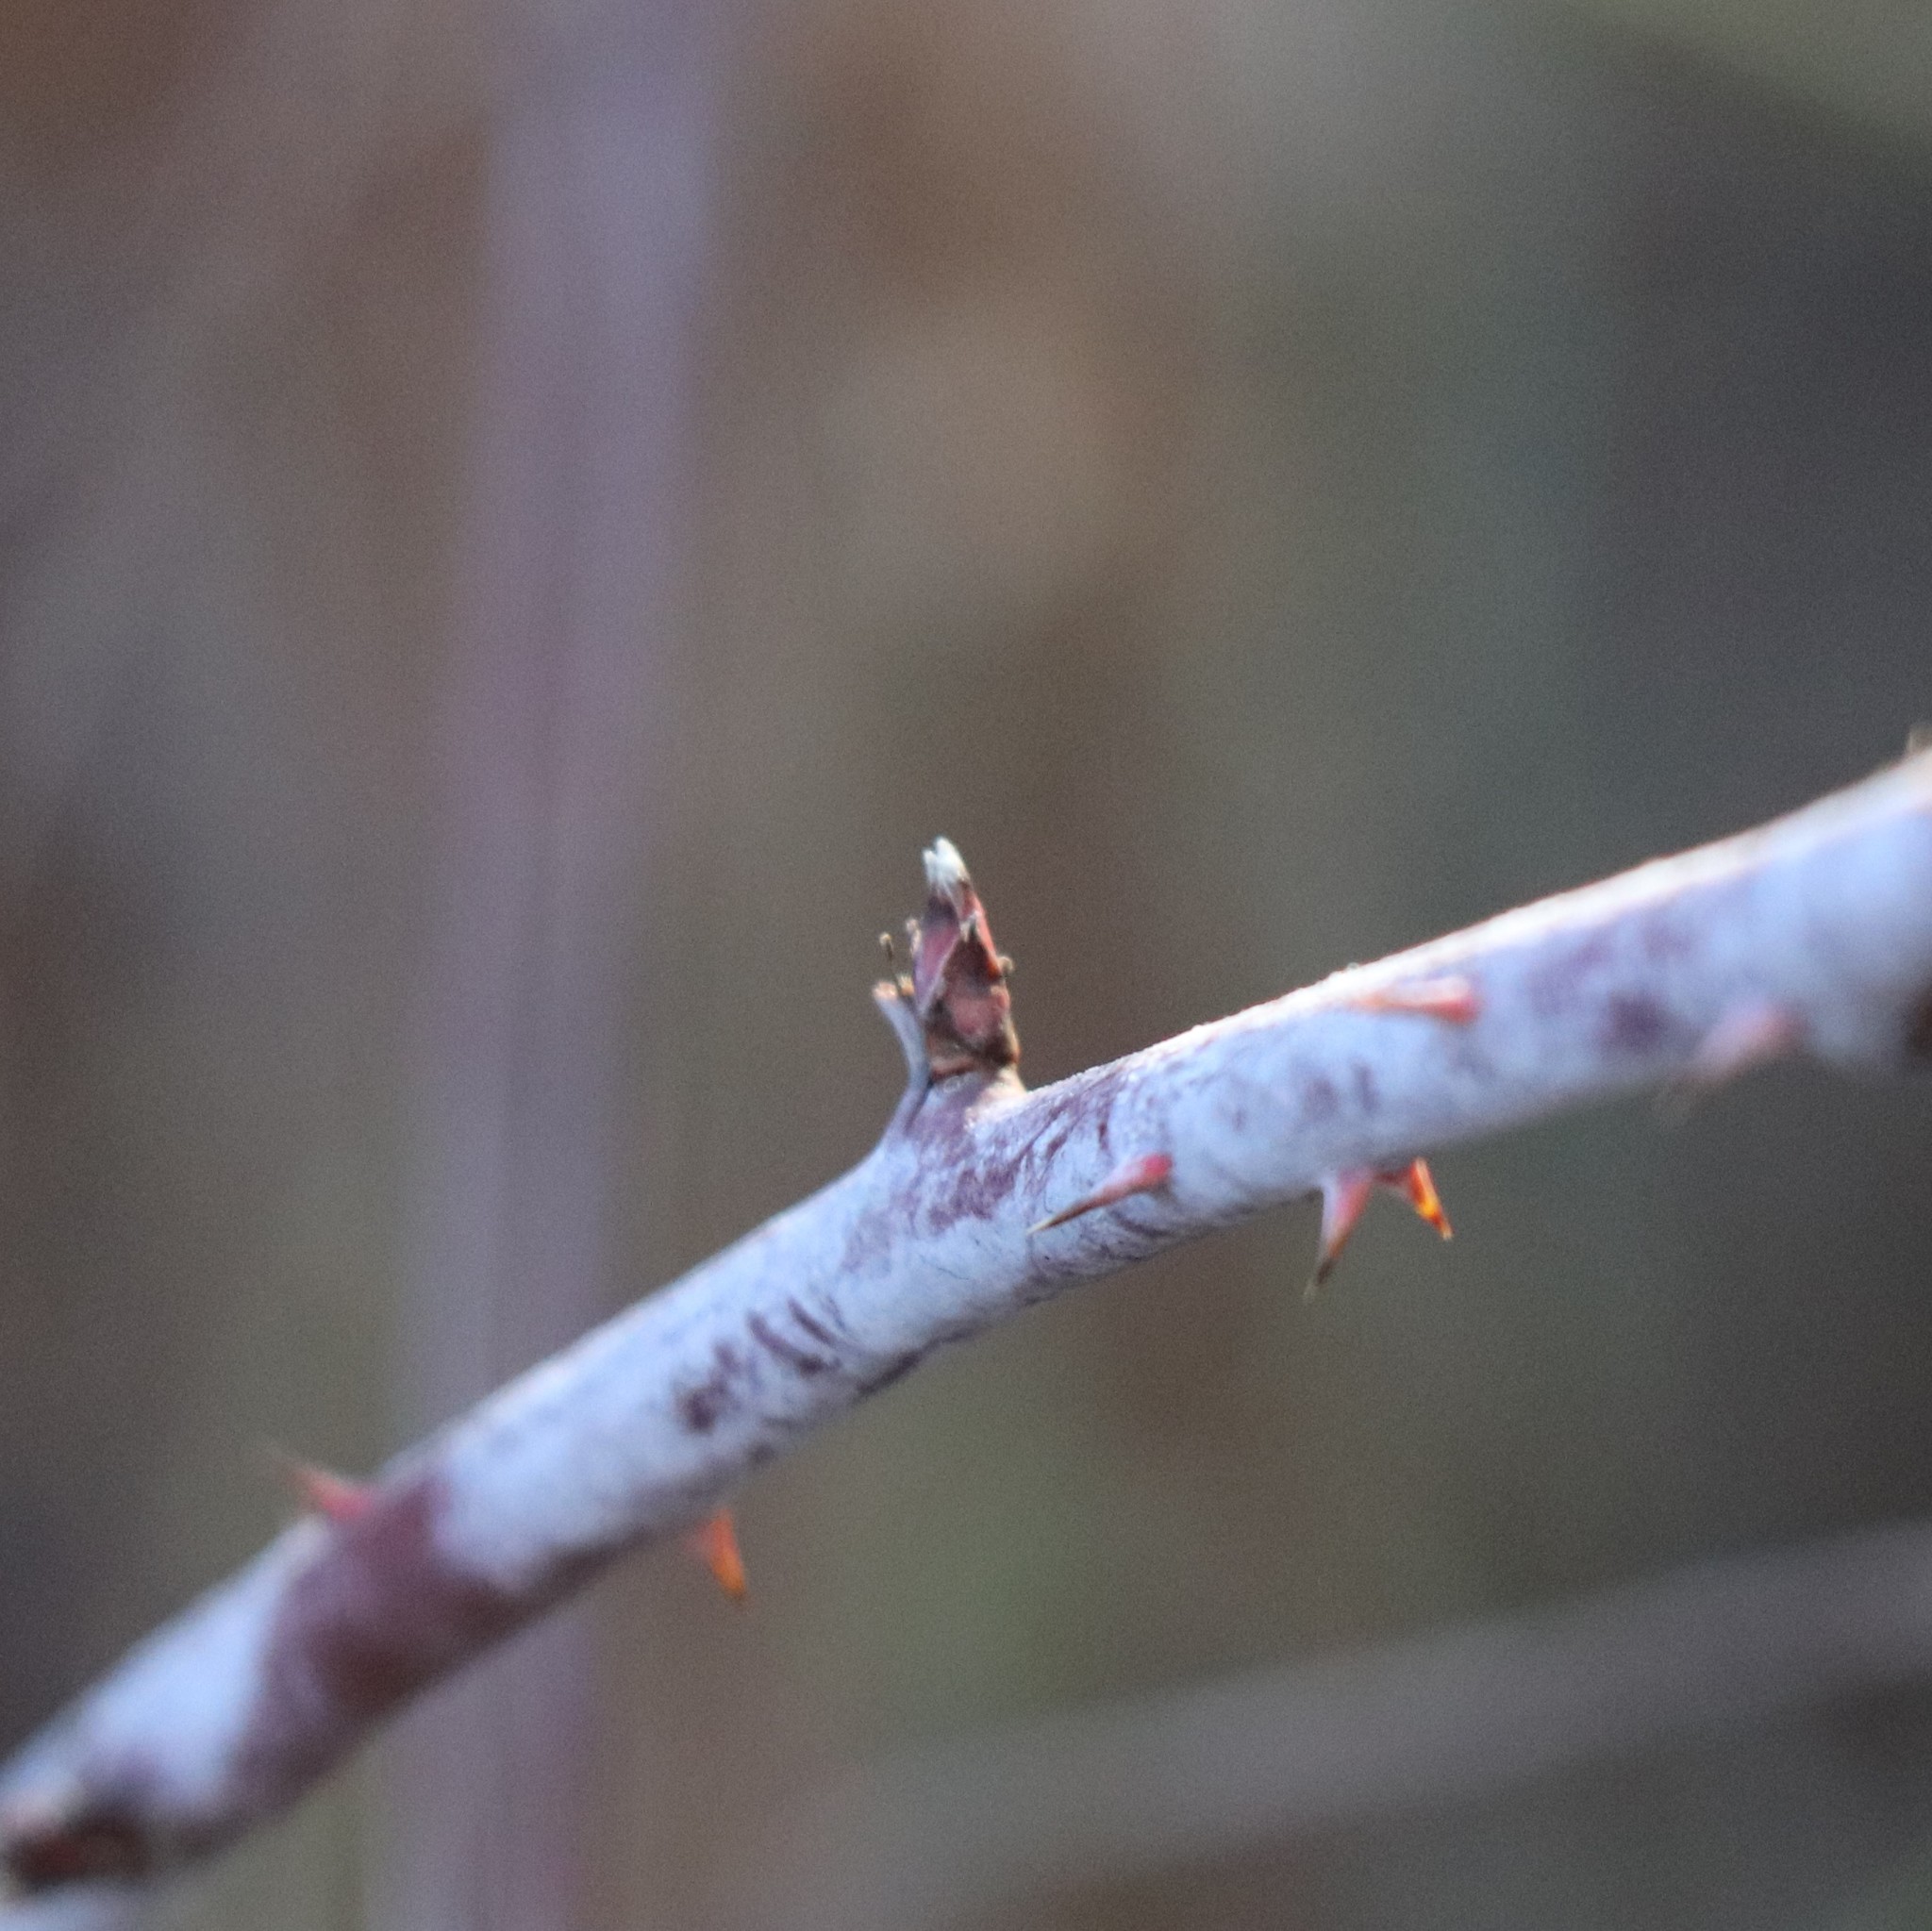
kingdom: Plantae
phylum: Tracheophyta
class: Magnoliopsida
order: Rosales
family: Rosaceae
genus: Rubus
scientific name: Rubus occidentalis
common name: Black raspberry
